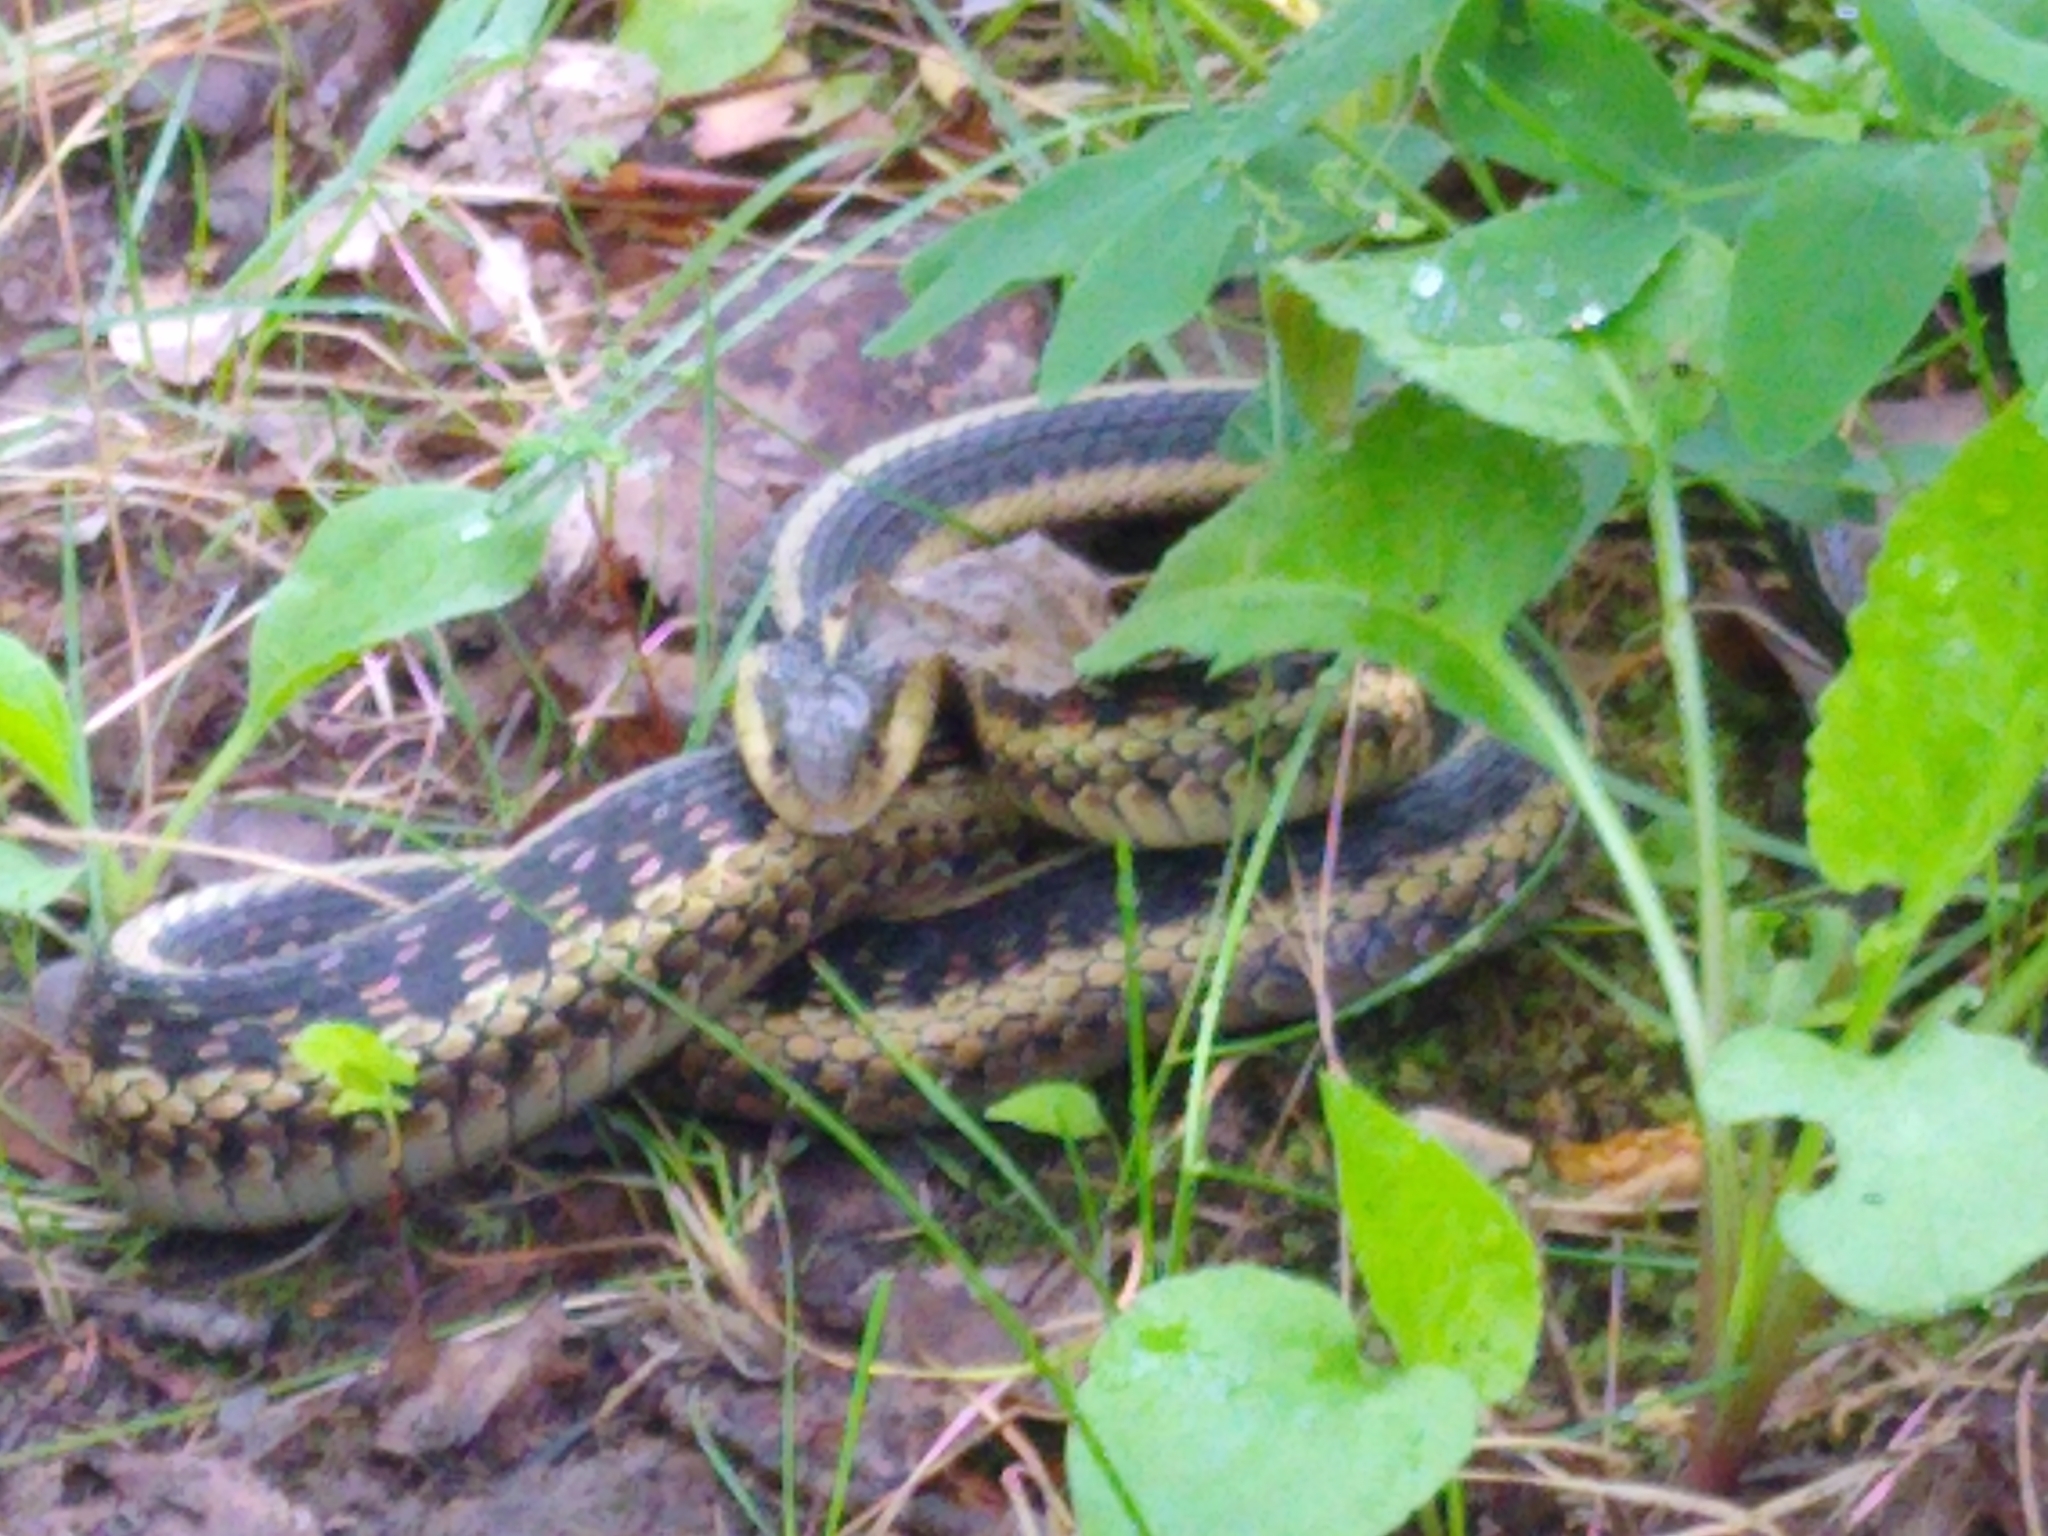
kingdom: Animalia
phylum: Chordata
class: Squamata
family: Colubridae
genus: Thamnophis
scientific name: Thamnophis sirtalis
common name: Common garter snake
